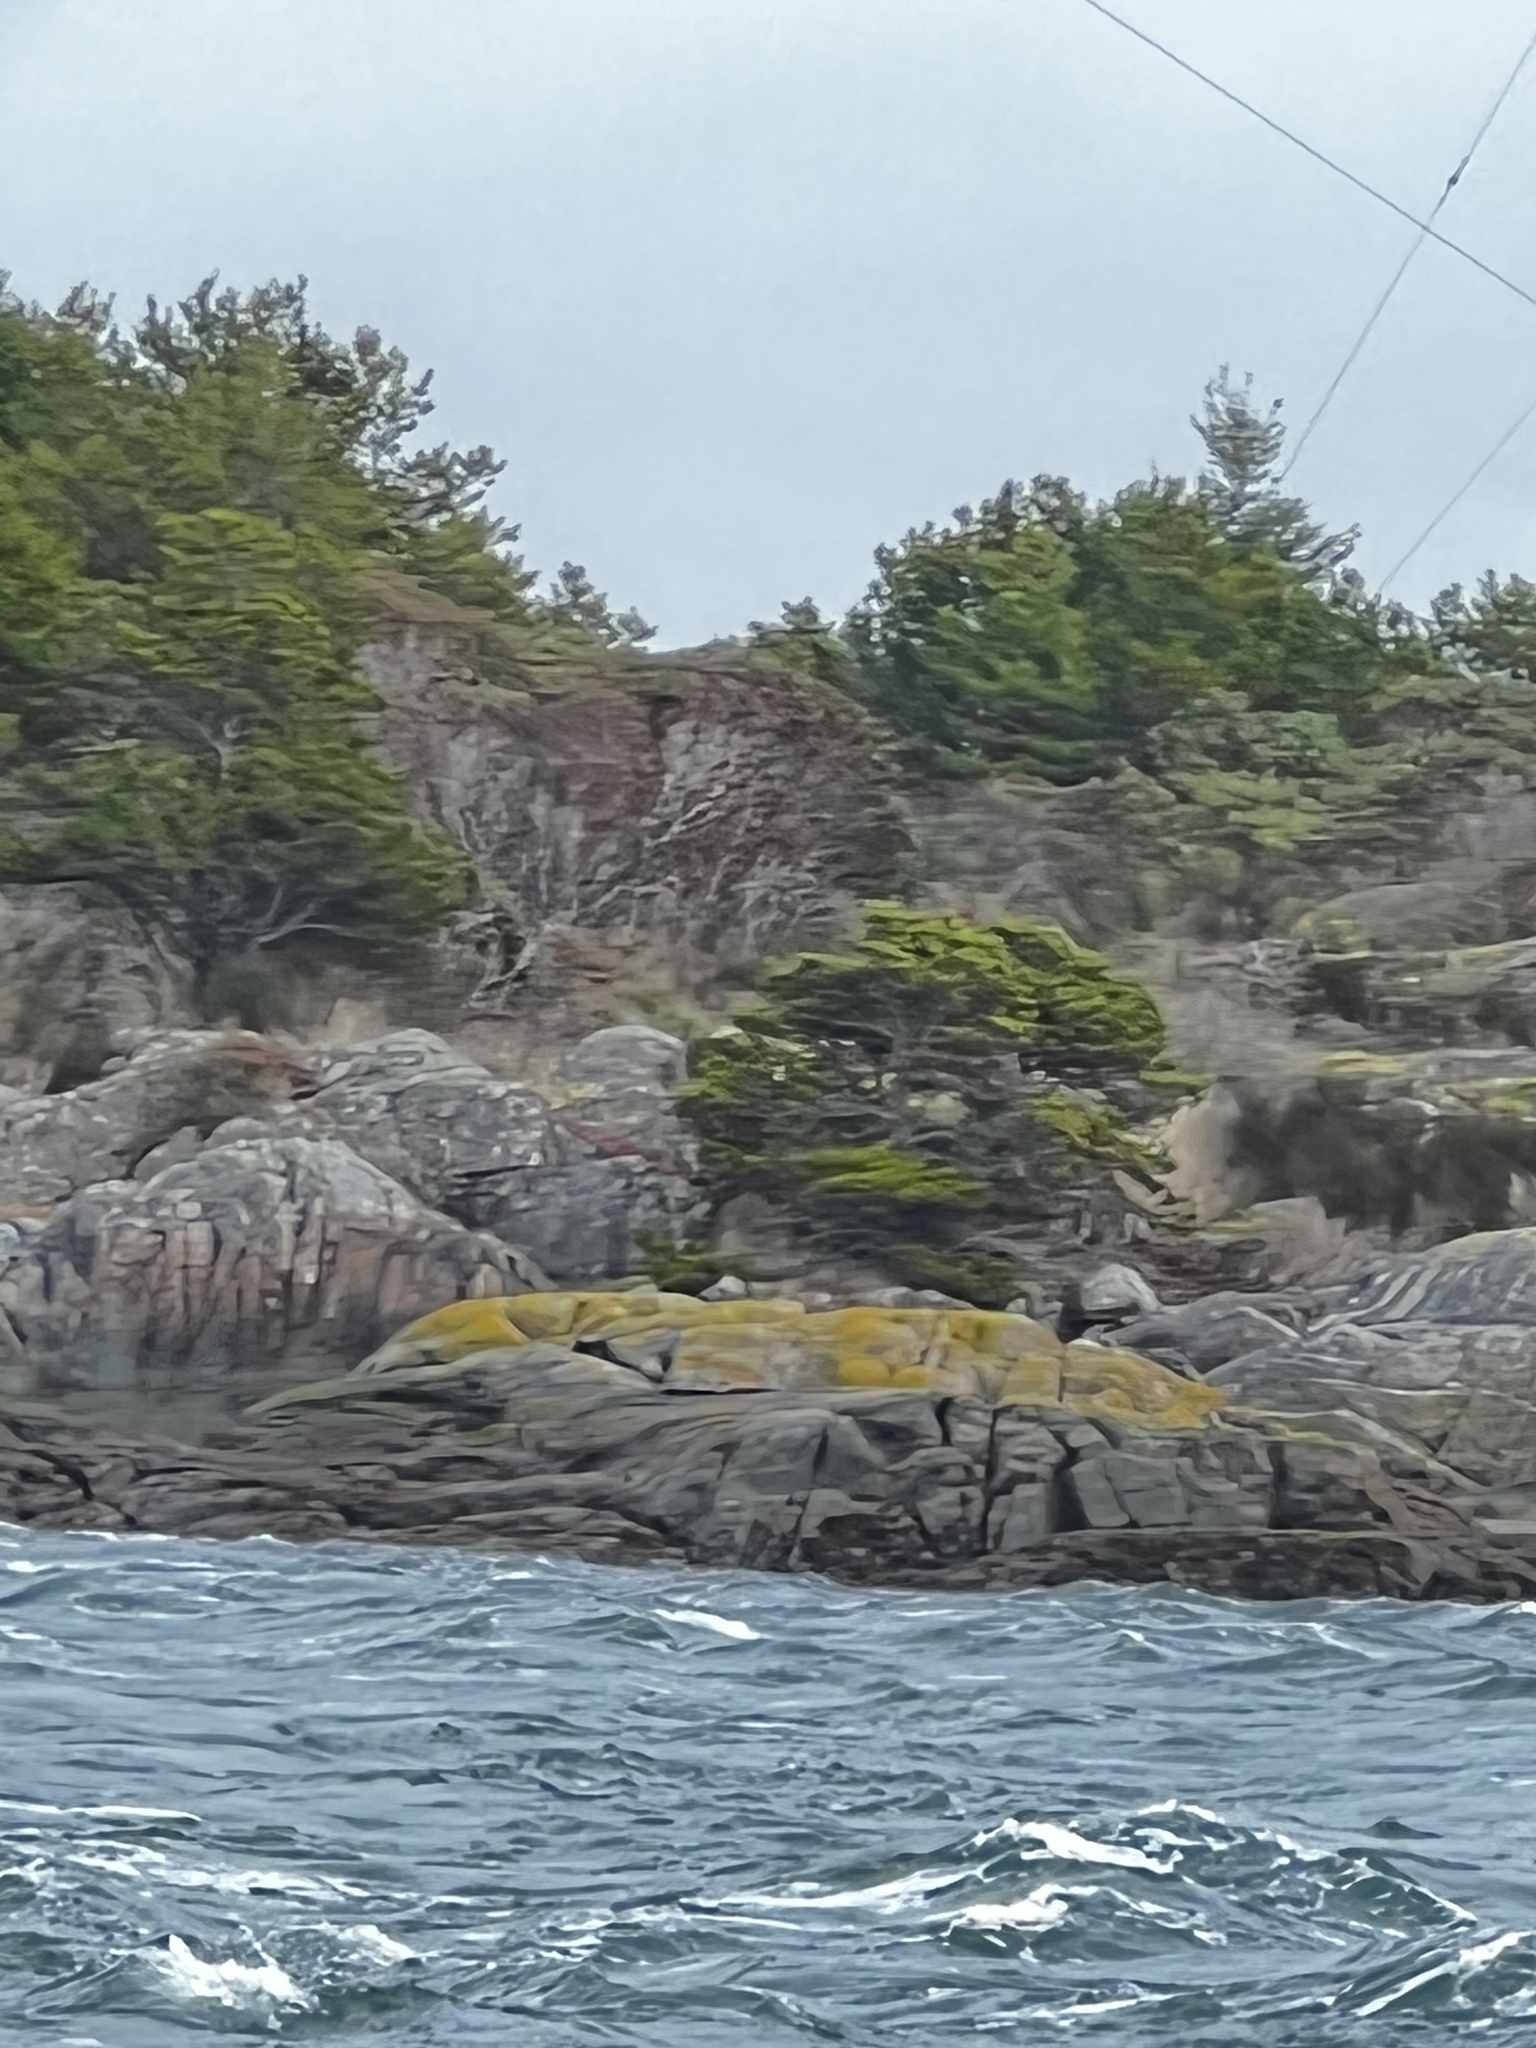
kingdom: Plantae
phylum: Tracheophyta
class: Pinopsida
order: Pinales
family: Pinaceae
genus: Pinus
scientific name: Pinus contorta
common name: Lodgepole pine
